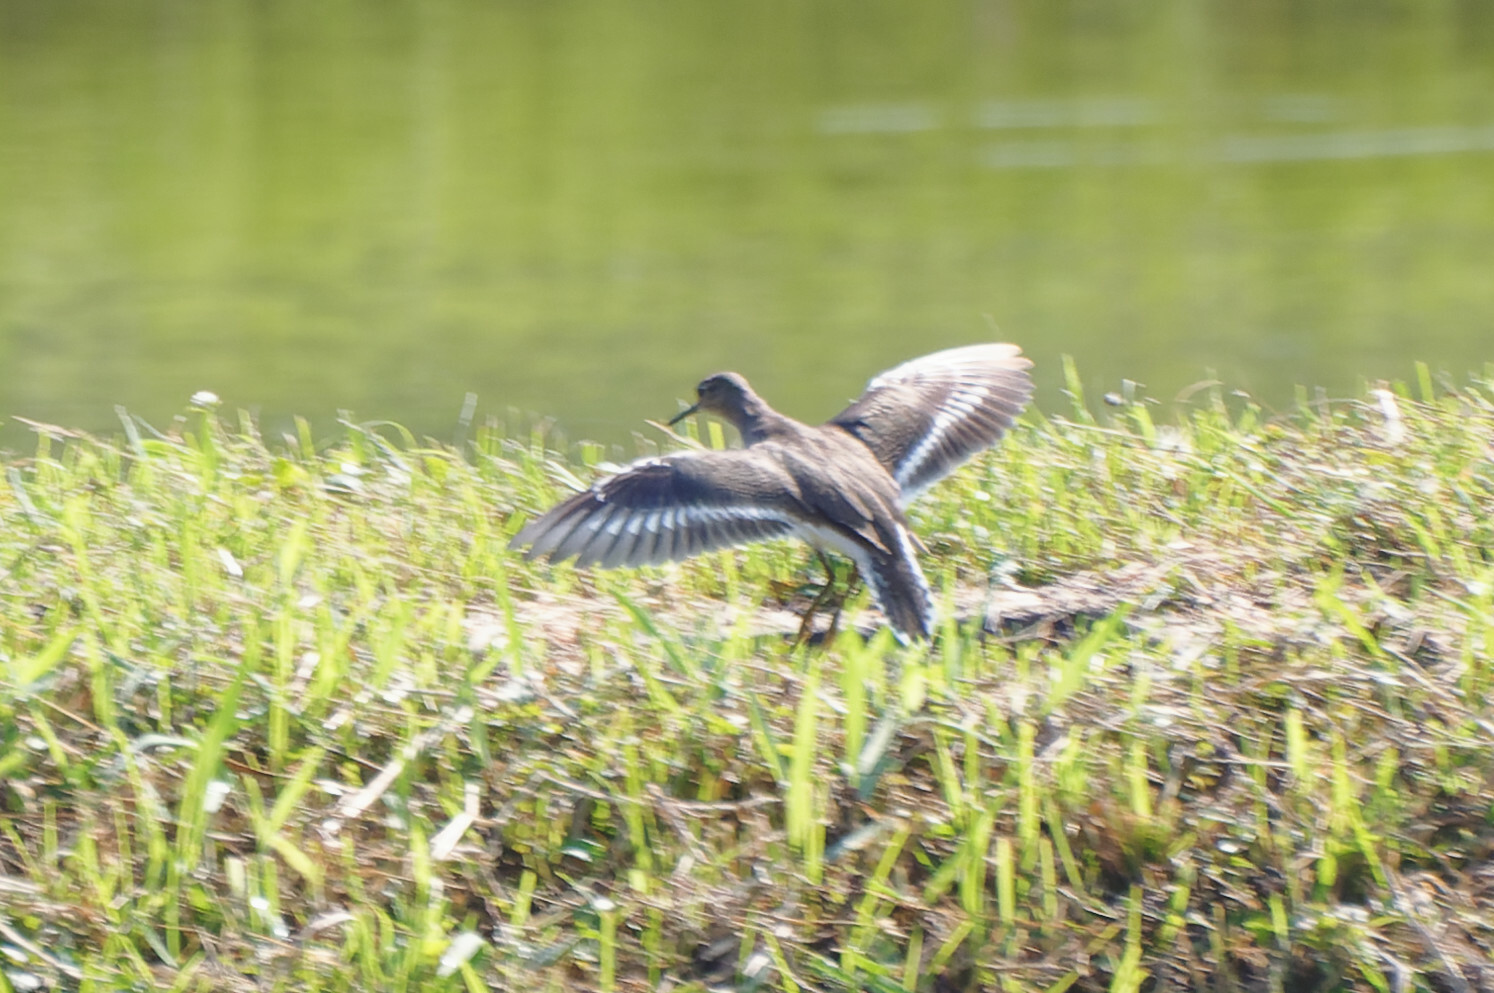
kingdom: Animalia
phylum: Chordata
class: Aves
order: Charadriiformes
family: Scolopacidae
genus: Actitis
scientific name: Actitis hypoleucos
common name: Common sandpiper
